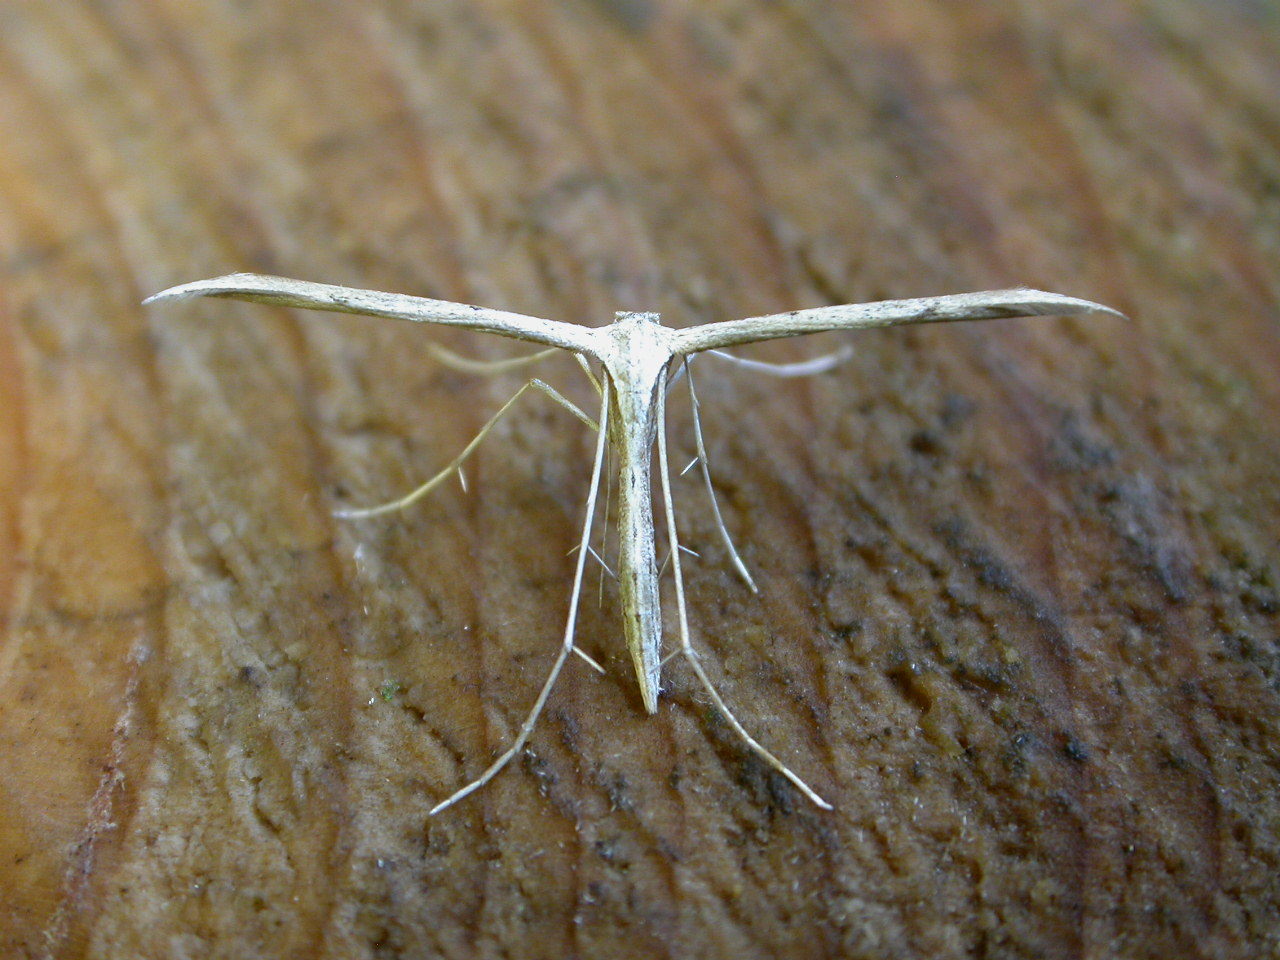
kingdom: Animalia
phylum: Arthropoda
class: Insecta
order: Lepidoptera
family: Pterophoridae
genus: Emmelina
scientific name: Emmelina monodactyla
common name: Common plume
